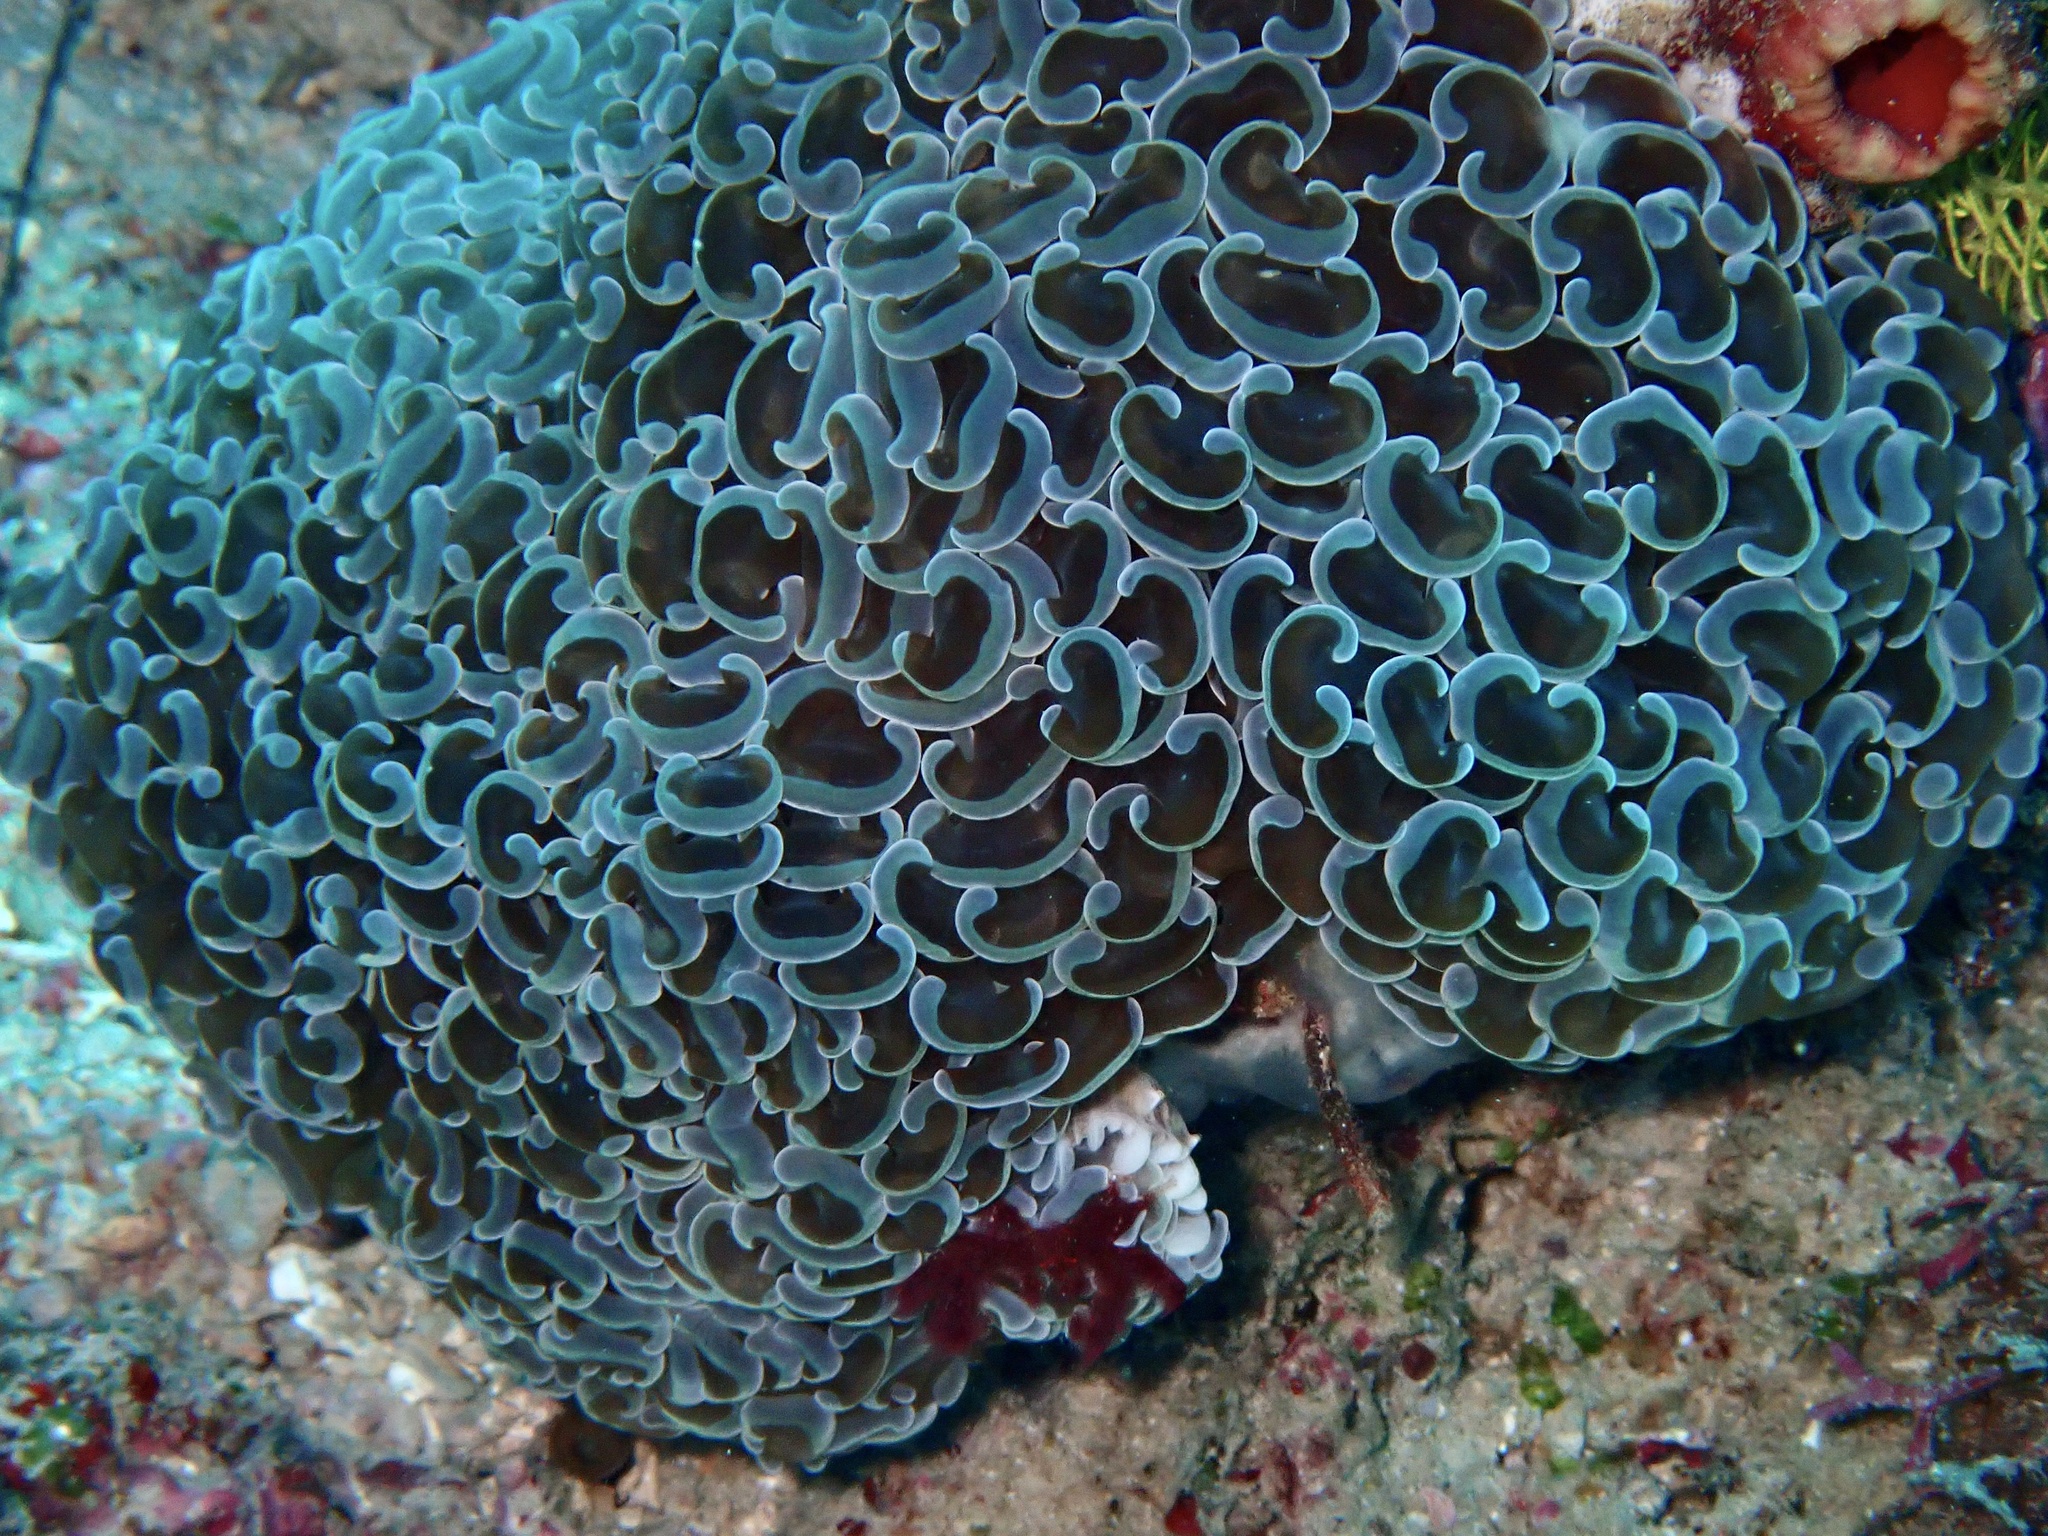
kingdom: Animalia
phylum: Cnidaria
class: Anthozoa
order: Scleractinia
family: Euphylliidae
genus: Fimbriaphyllia
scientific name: Fimbriaphyllia ancora
